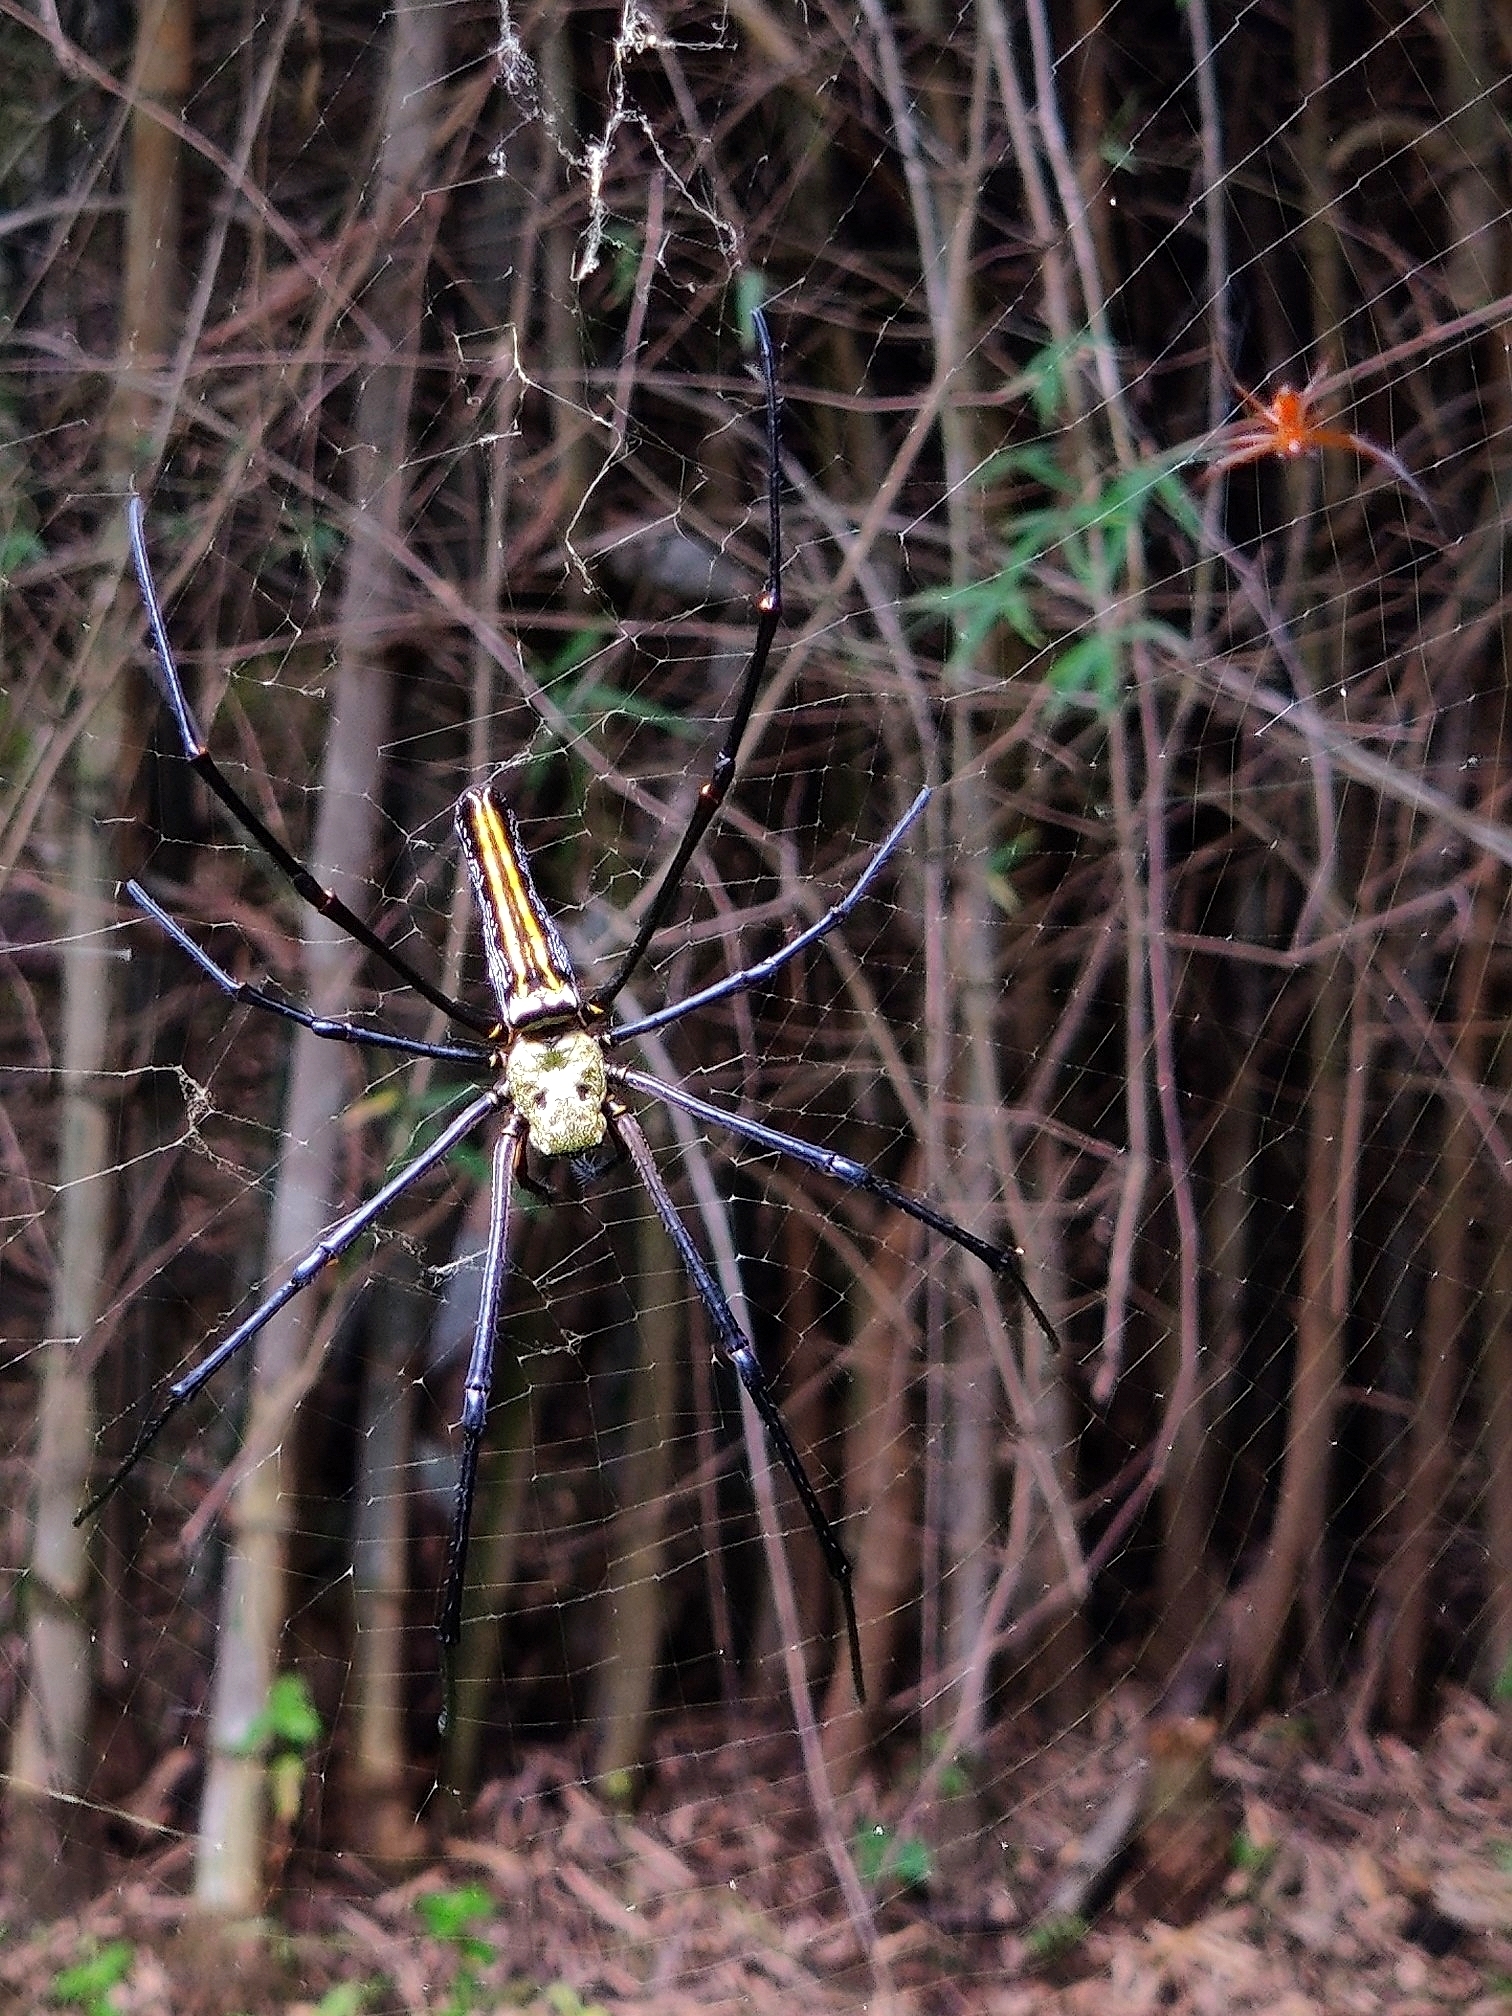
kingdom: Animalia
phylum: Arthropoda
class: Arachnida
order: Araneae
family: Araneidae
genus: Nephila
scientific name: Nephila pilipes
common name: Giant golden orb weaver
